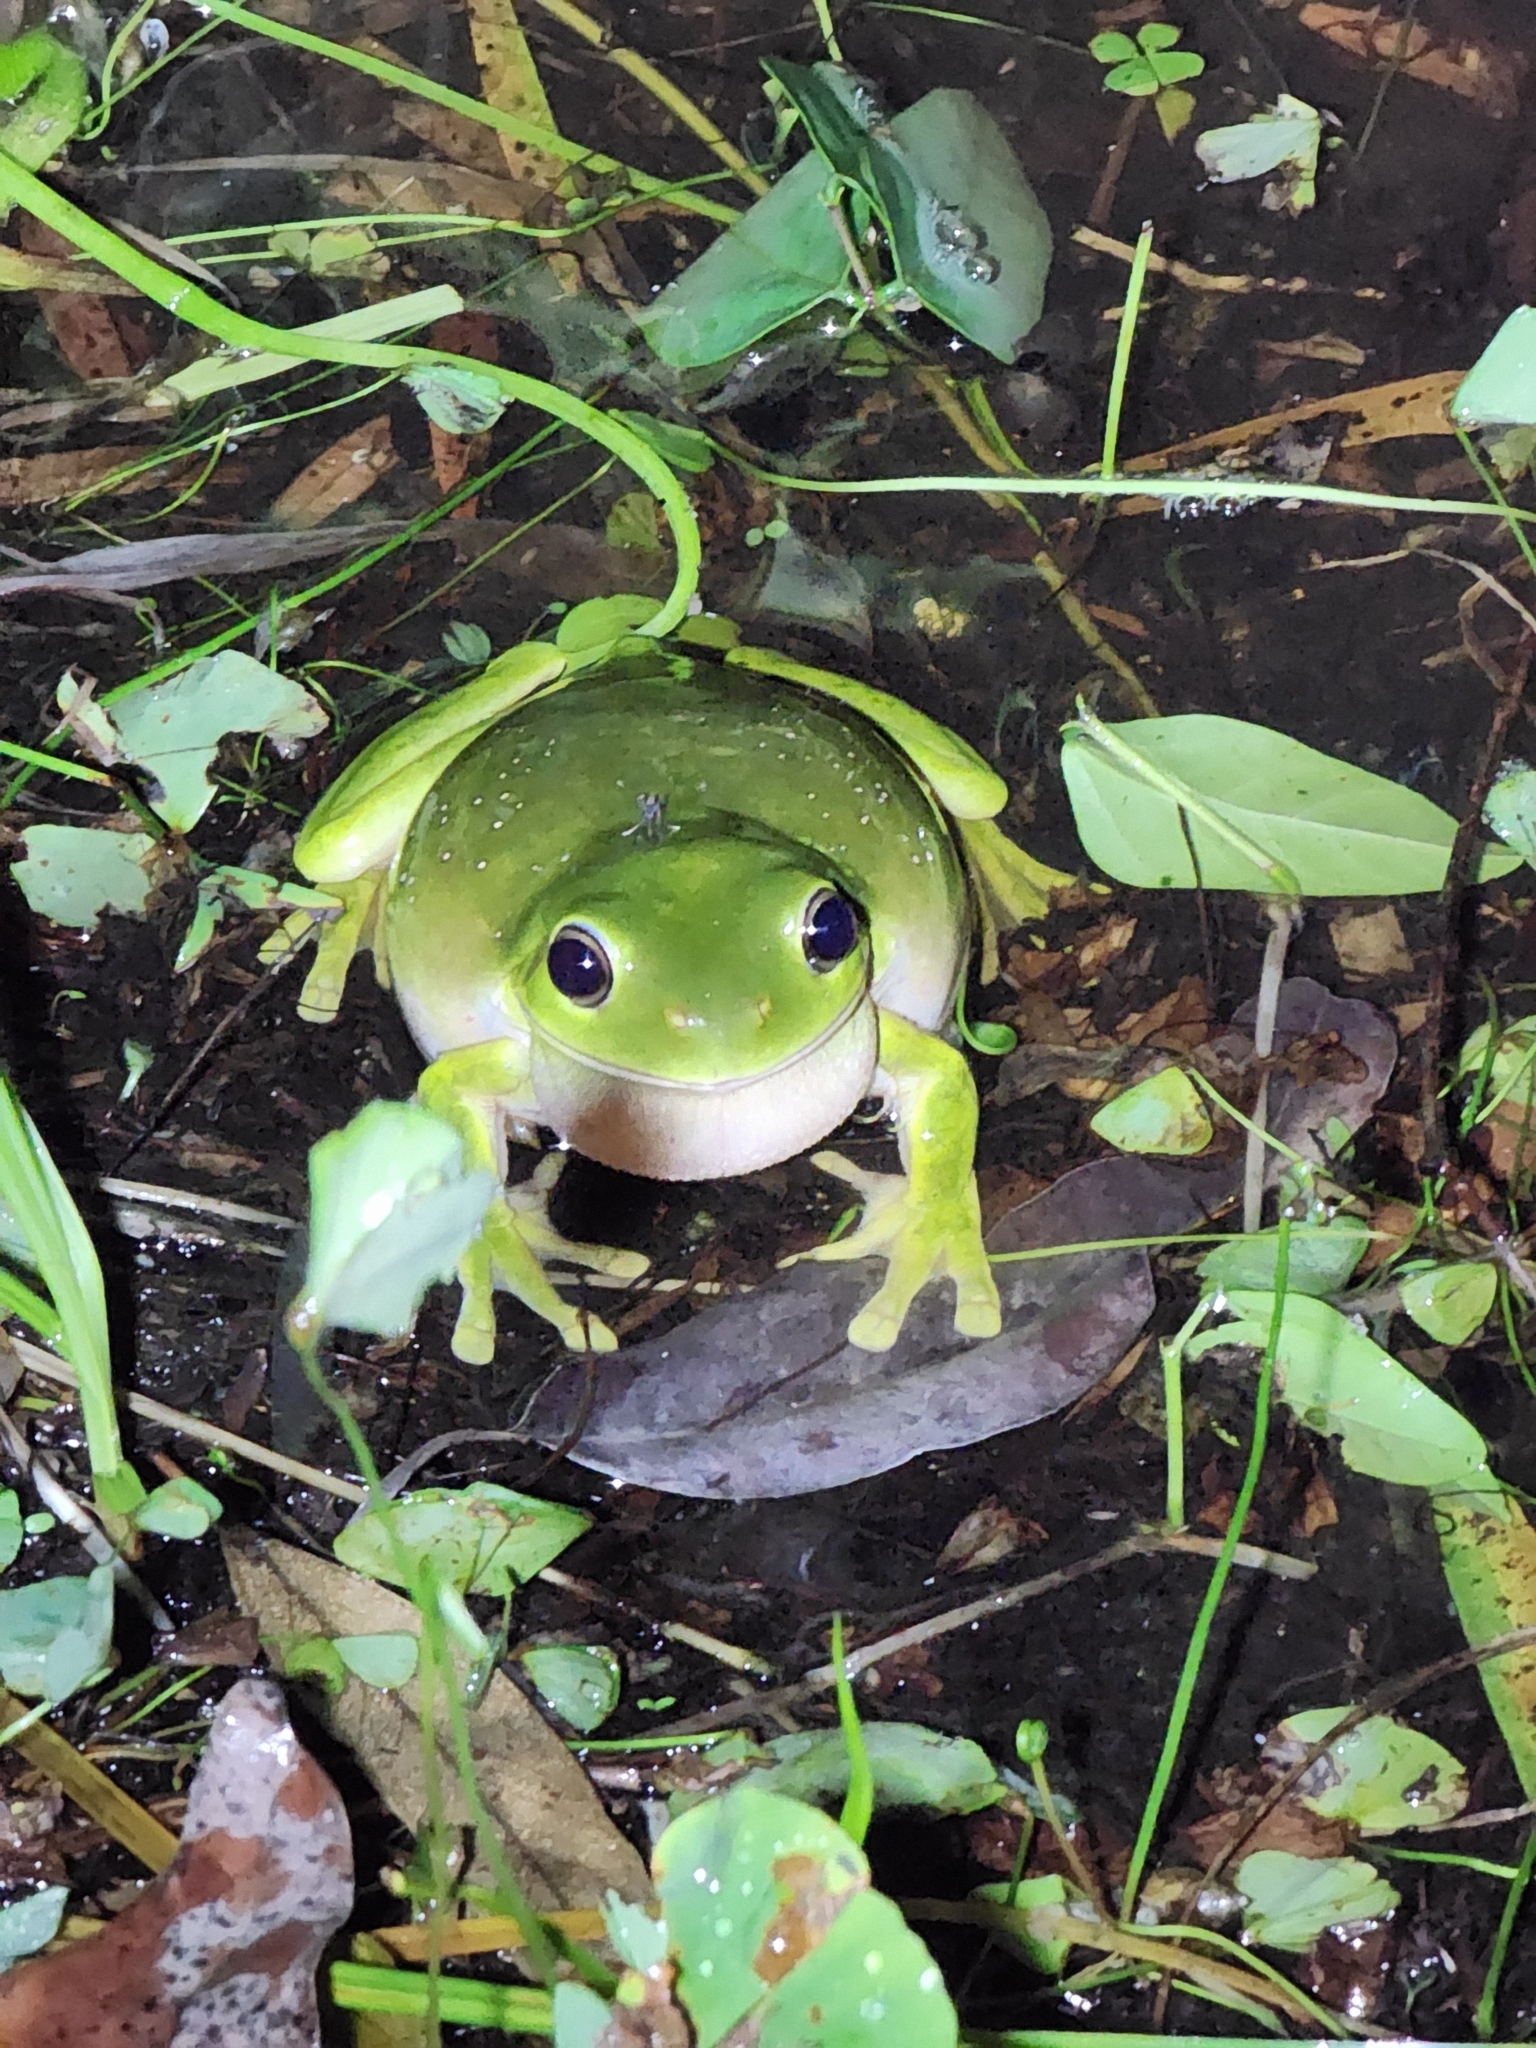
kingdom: Animalia
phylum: Chordata
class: Amphibia
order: Anura
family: Pelodryadidae
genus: Ranoidea
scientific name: Ranoidea caerulea
